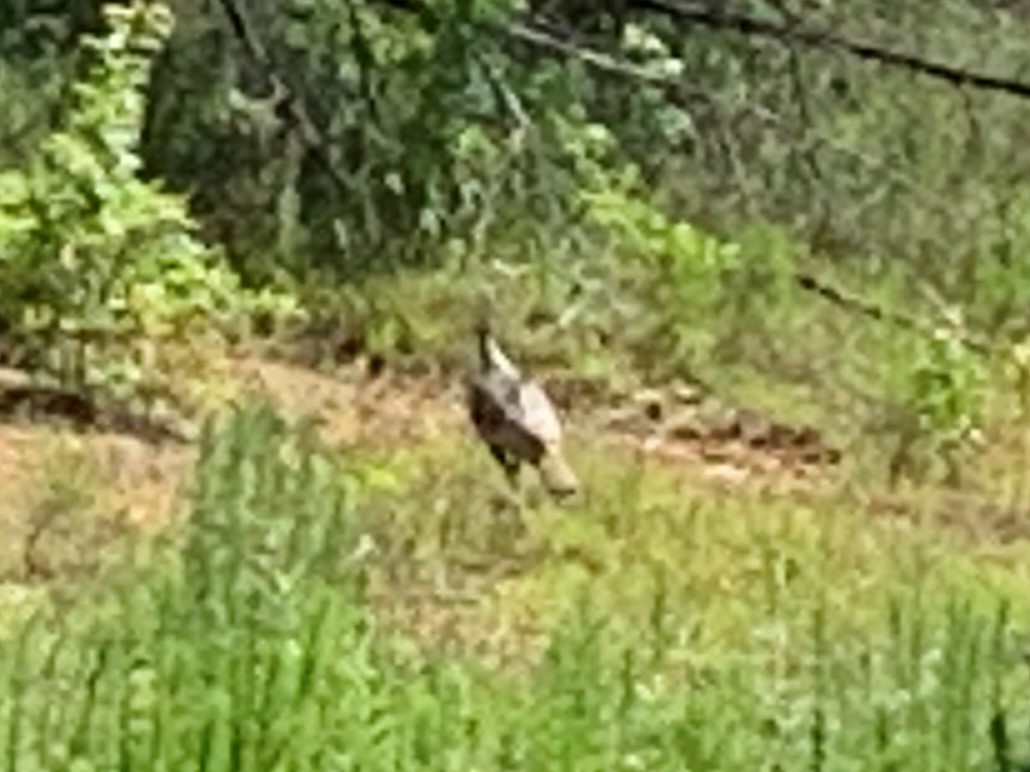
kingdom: Animalia
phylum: Chordata
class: Aves
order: Galliformes
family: Phasianidae
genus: Meleagris
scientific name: Meleagris gallopavo
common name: Wild turkey
